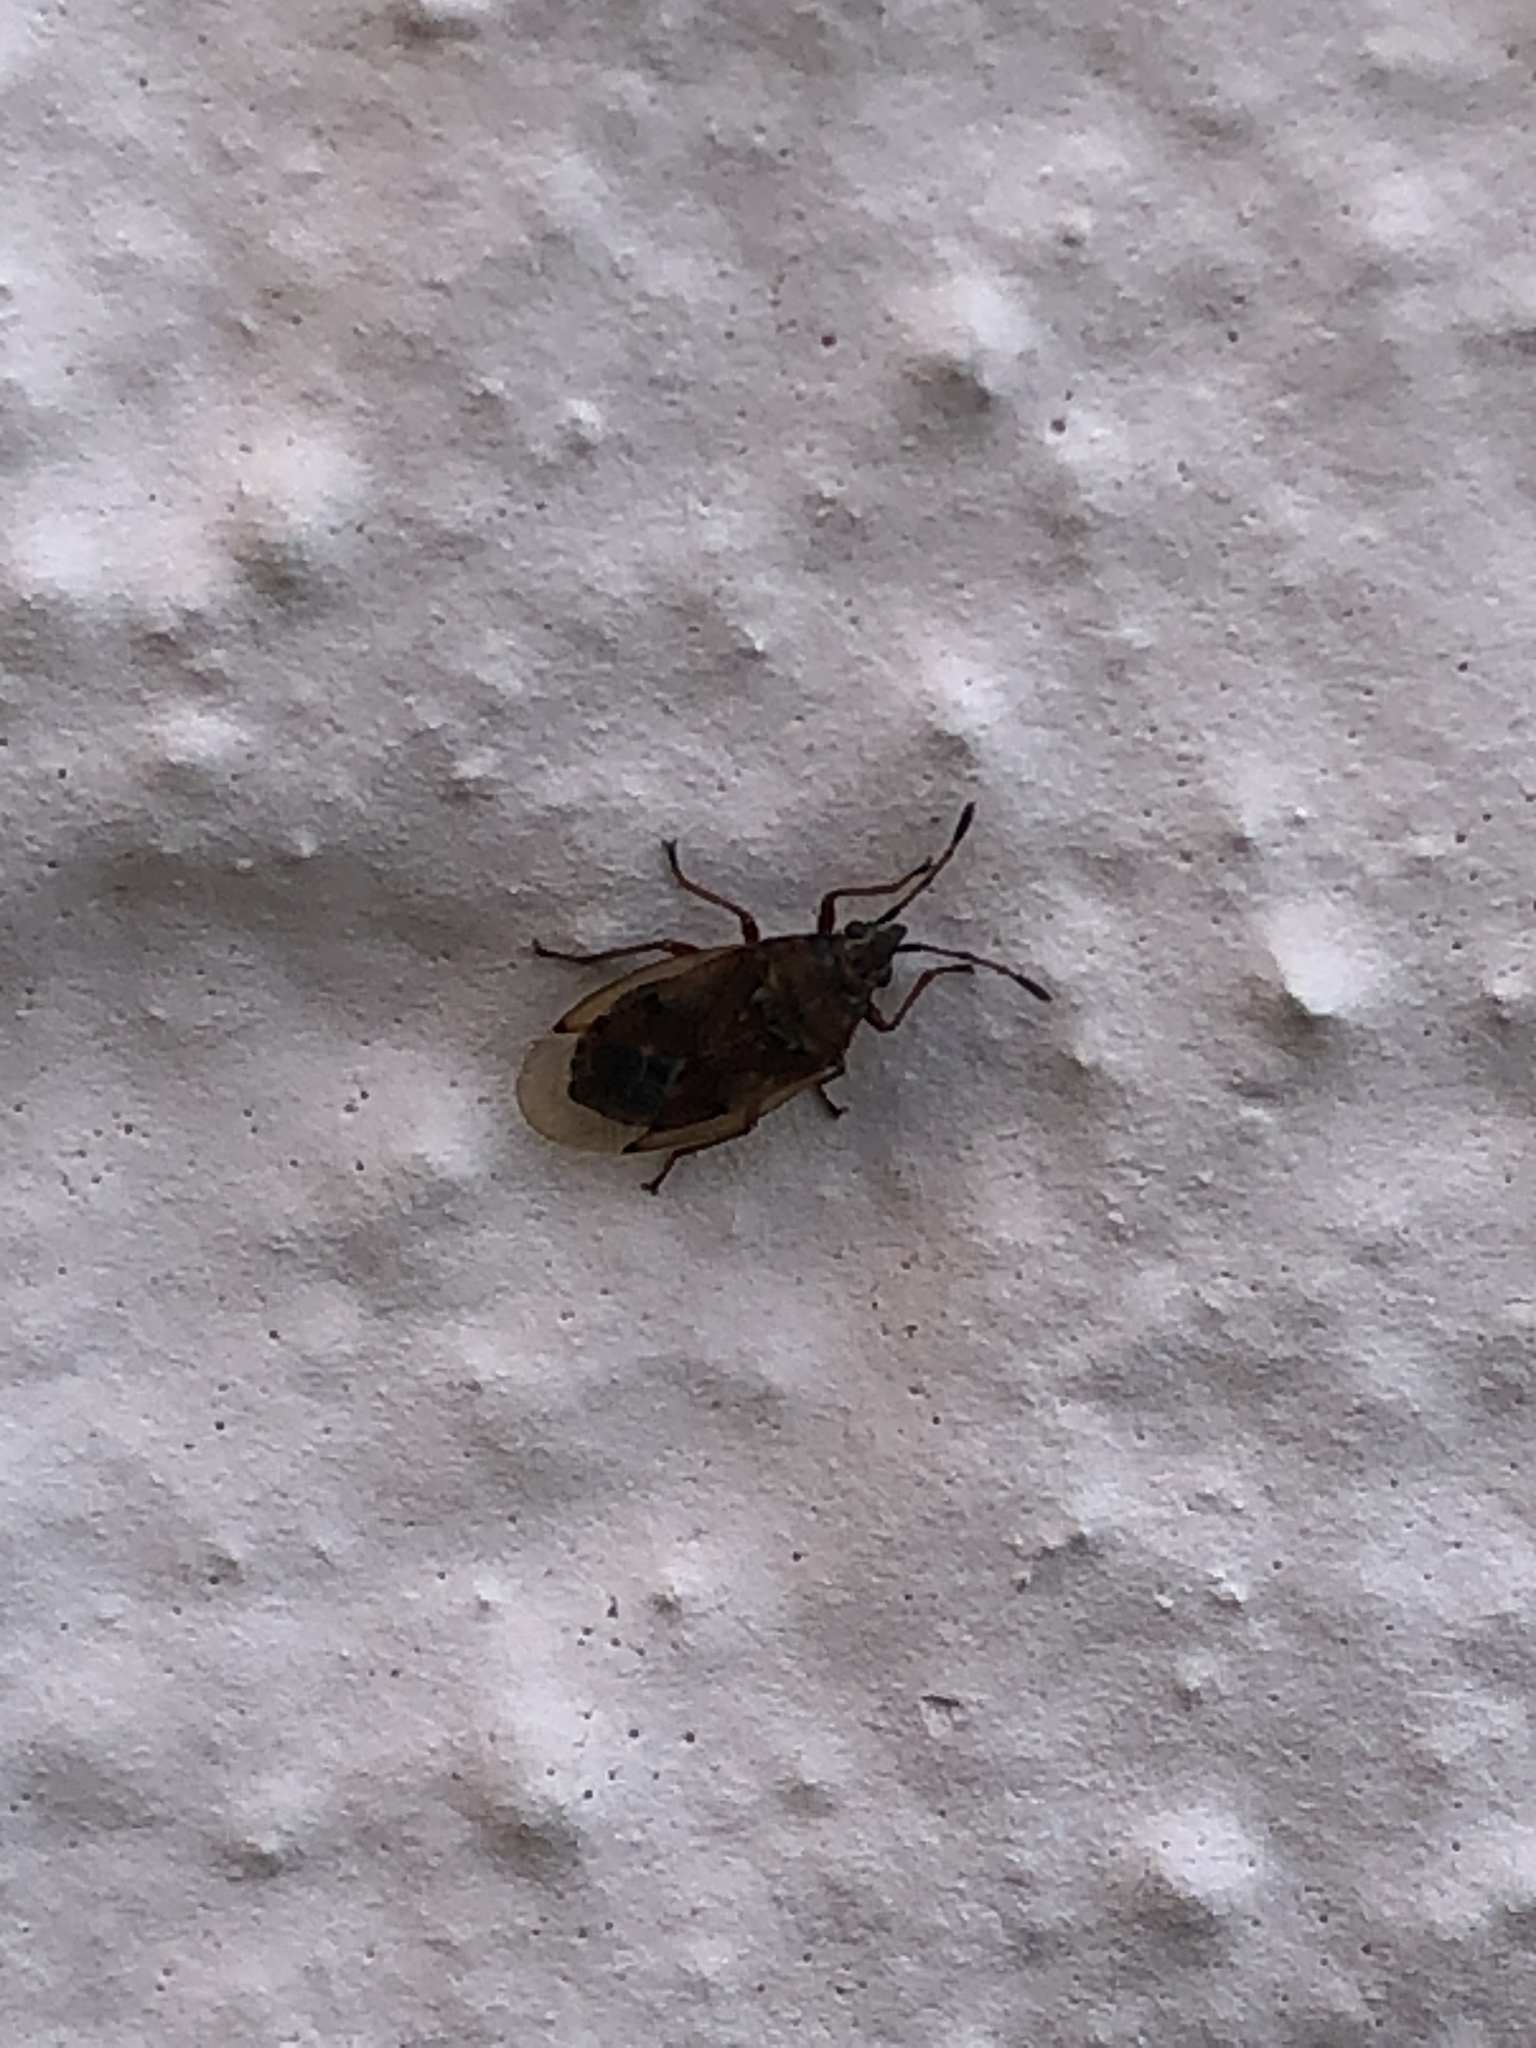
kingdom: Animalia
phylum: Arthropoda
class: Insecta
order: Hemiptera
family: Lygaeidae
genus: Kleidocerys
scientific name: Kleidocerys resedae
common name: Birch catkin bug
